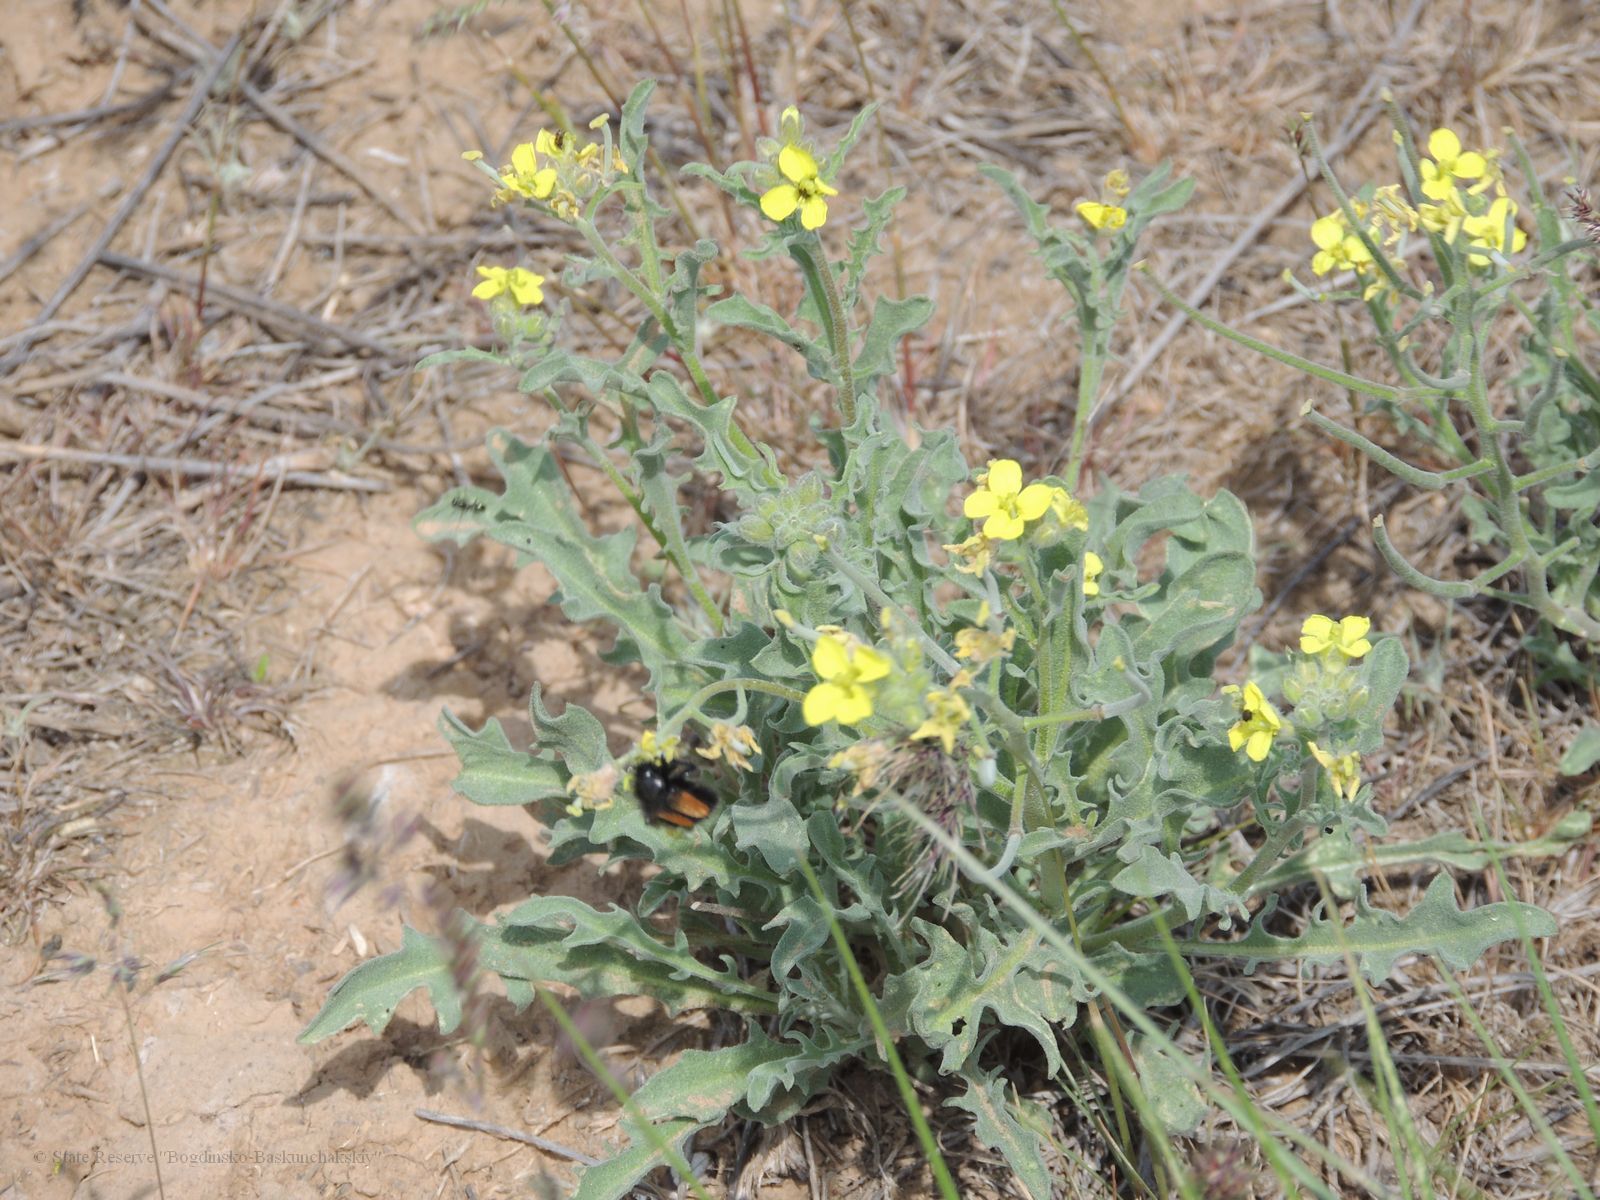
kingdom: Plantae
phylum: Tracheophyta
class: Magnoliopsida
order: Brassicales
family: Brassicaceae
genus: Sterigmostemum
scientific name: Sterigmostemum caspicum
